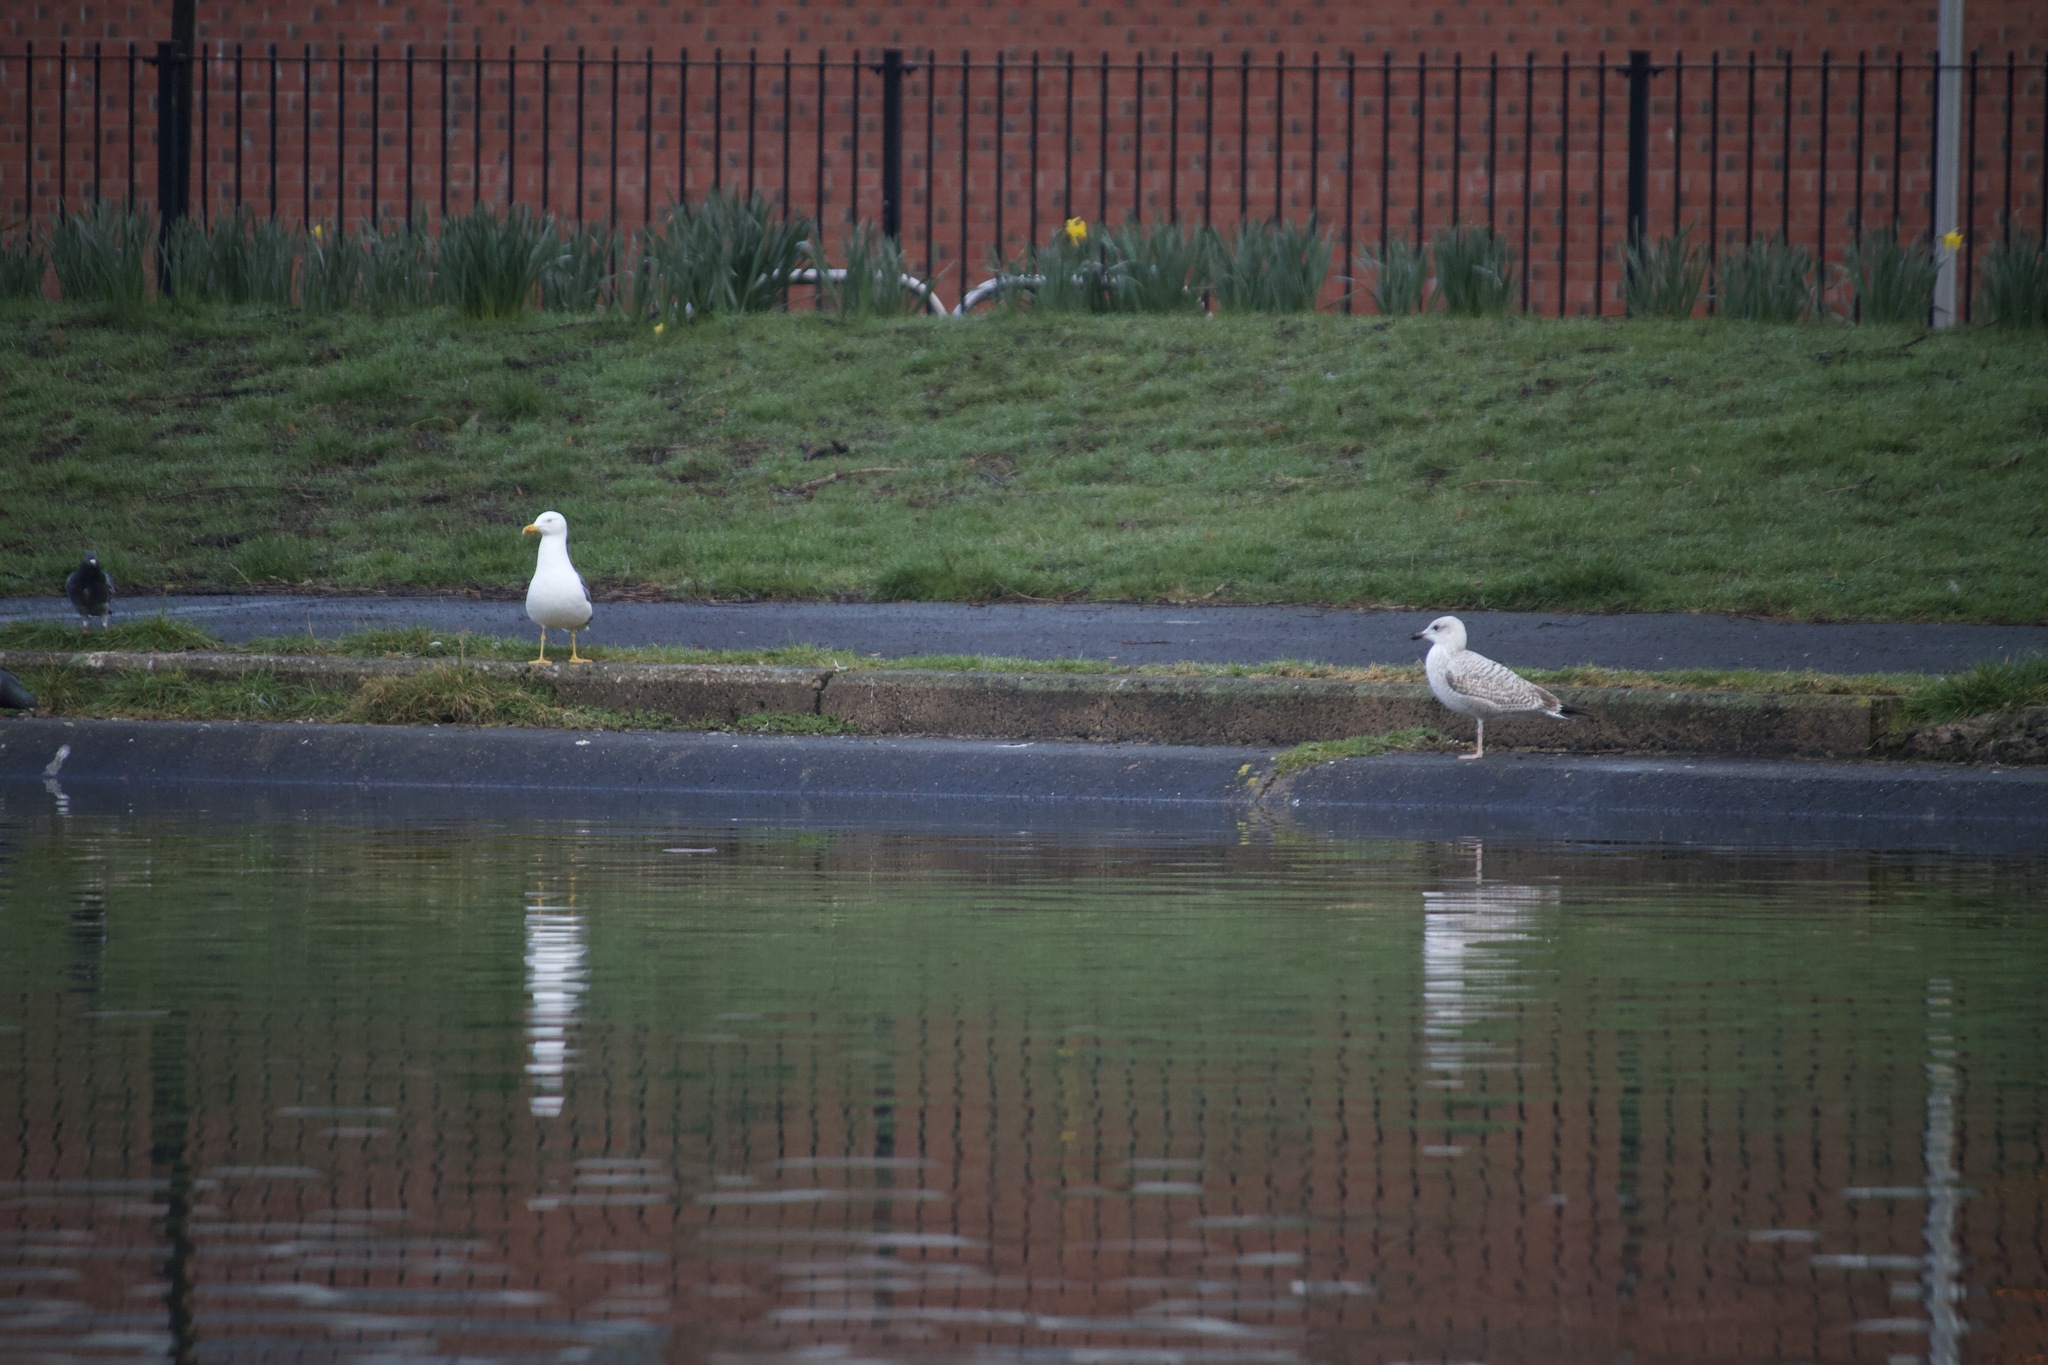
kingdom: Animalia
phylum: Chordata
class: Aves
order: Charadriiformes
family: Laridae
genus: Larus
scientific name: Larus argentatus
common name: Herring gull
